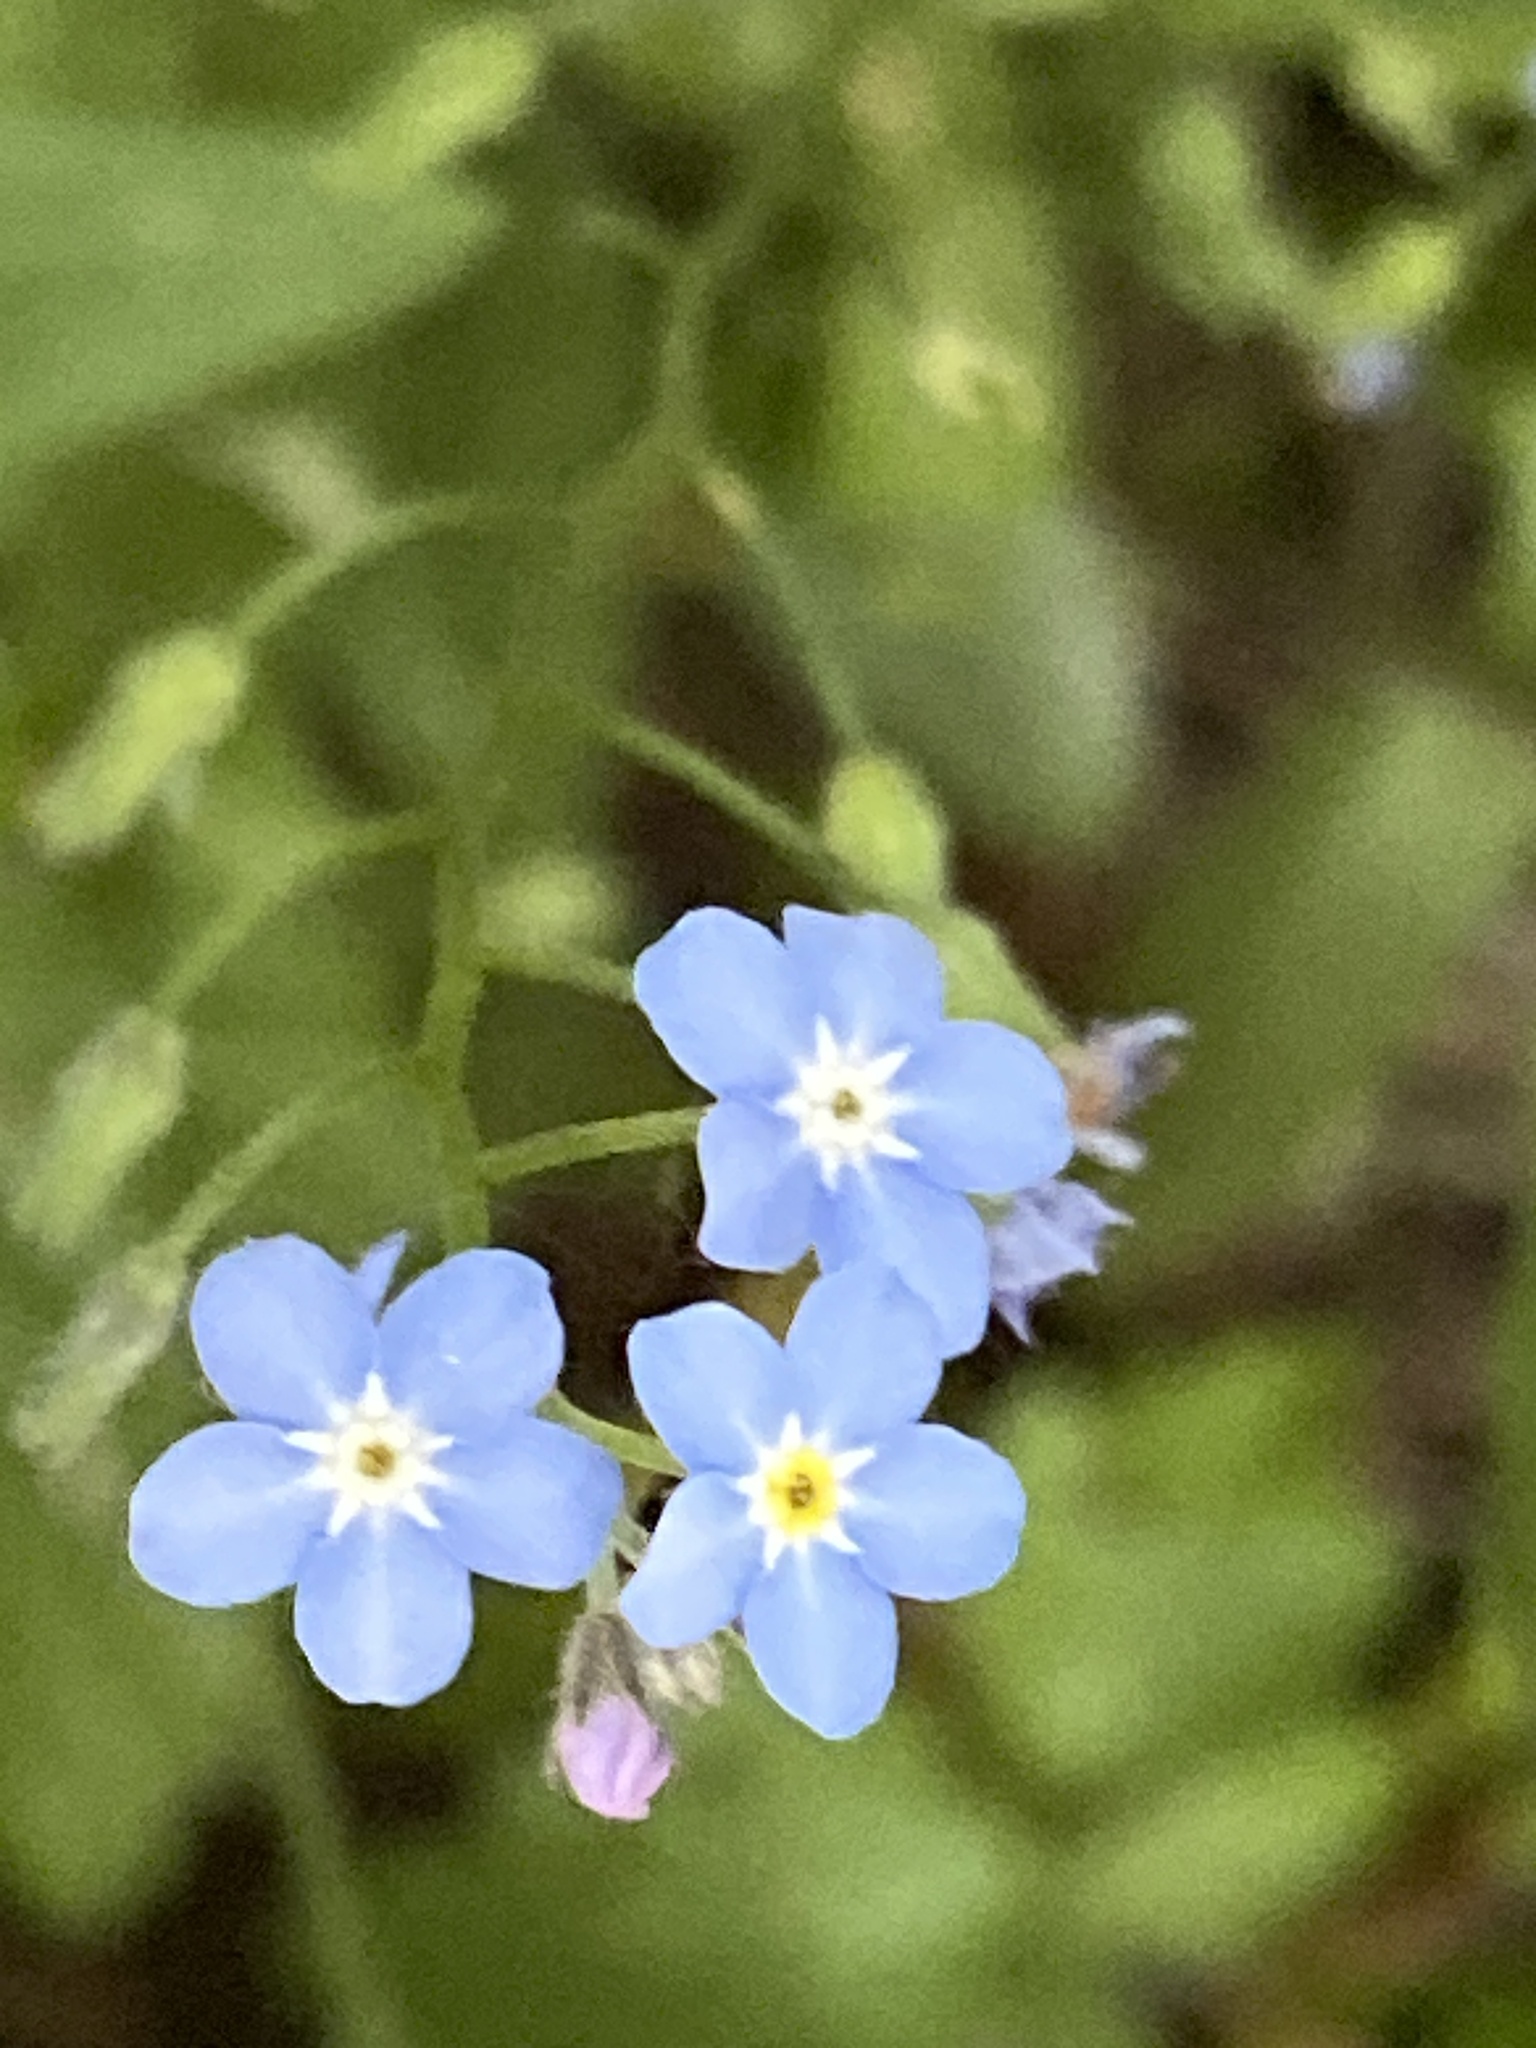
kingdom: Plantae
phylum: Tracheophyta
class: Magnoliopsida
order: Boraginales
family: Boraginaceae
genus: Myosotis
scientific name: Myosotis sylvatica
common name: Wood forget-me-not
